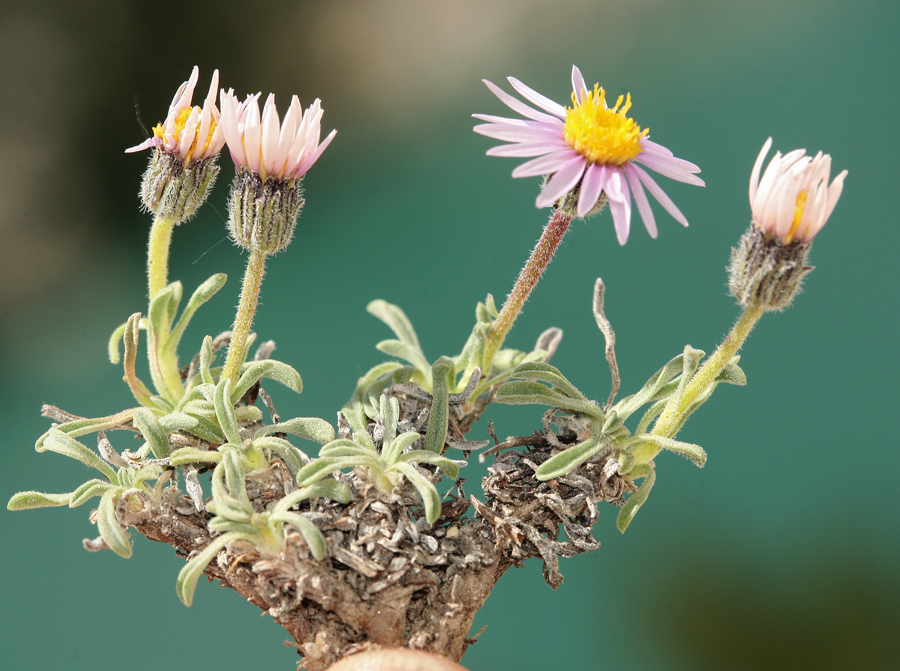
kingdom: Plantae
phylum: Tracheophyta
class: Magnoliopsida
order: Asterales
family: Asteraceae
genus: Erigeron
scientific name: Erigeron pygmaeus
